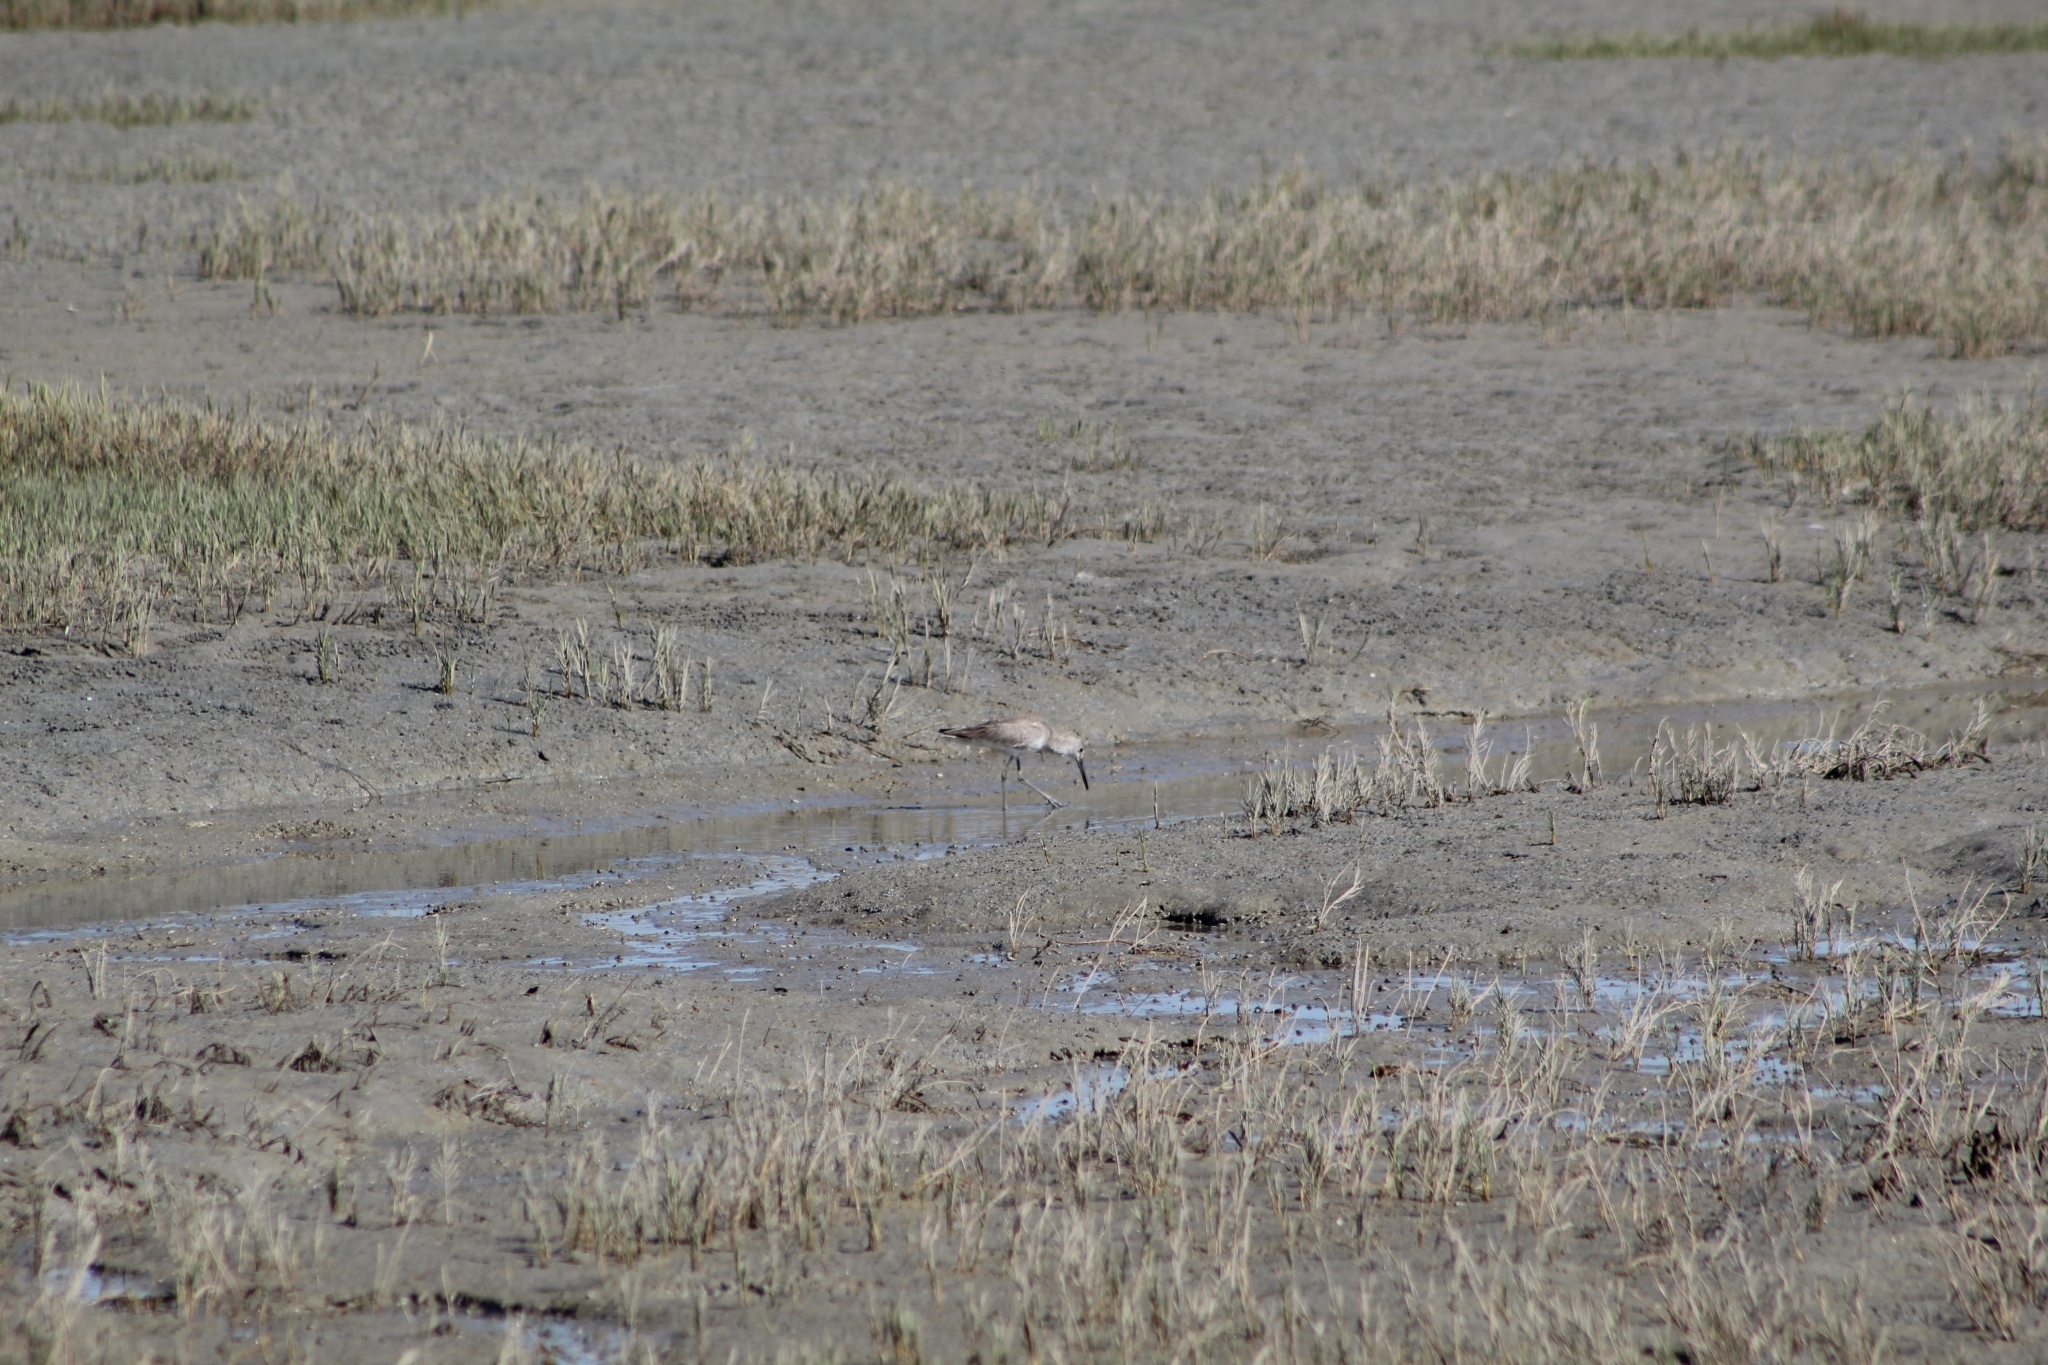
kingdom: Animalia
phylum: Chordata
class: Aves
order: Charadriiformes
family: Scolopacidae
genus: Tringa
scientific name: Tringa semipalmata
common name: Willet
